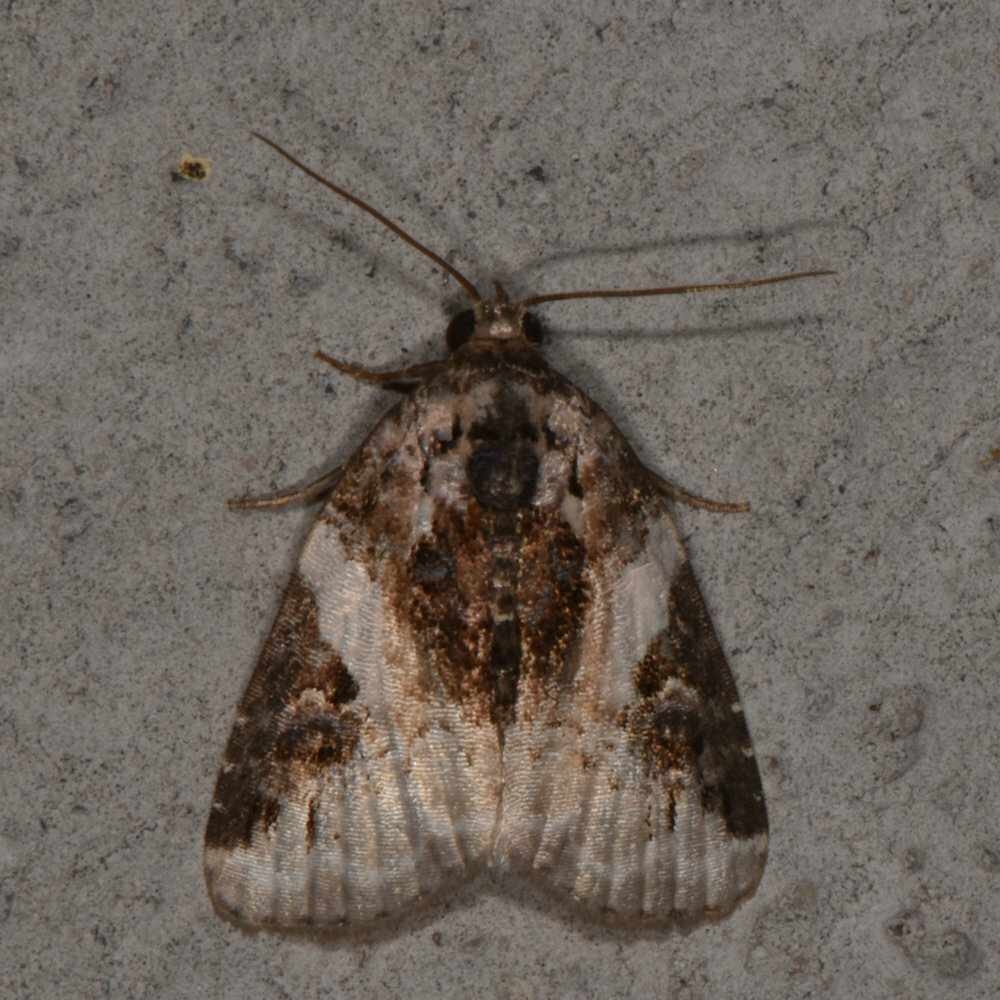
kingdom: Animalia
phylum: Arthropoda
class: Insecta
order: Lepidoptera
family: Noctuidae
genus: Pseudeustrotia
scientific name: Pseudeustrotia carneola
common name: Pink-barred lithacodia moth
